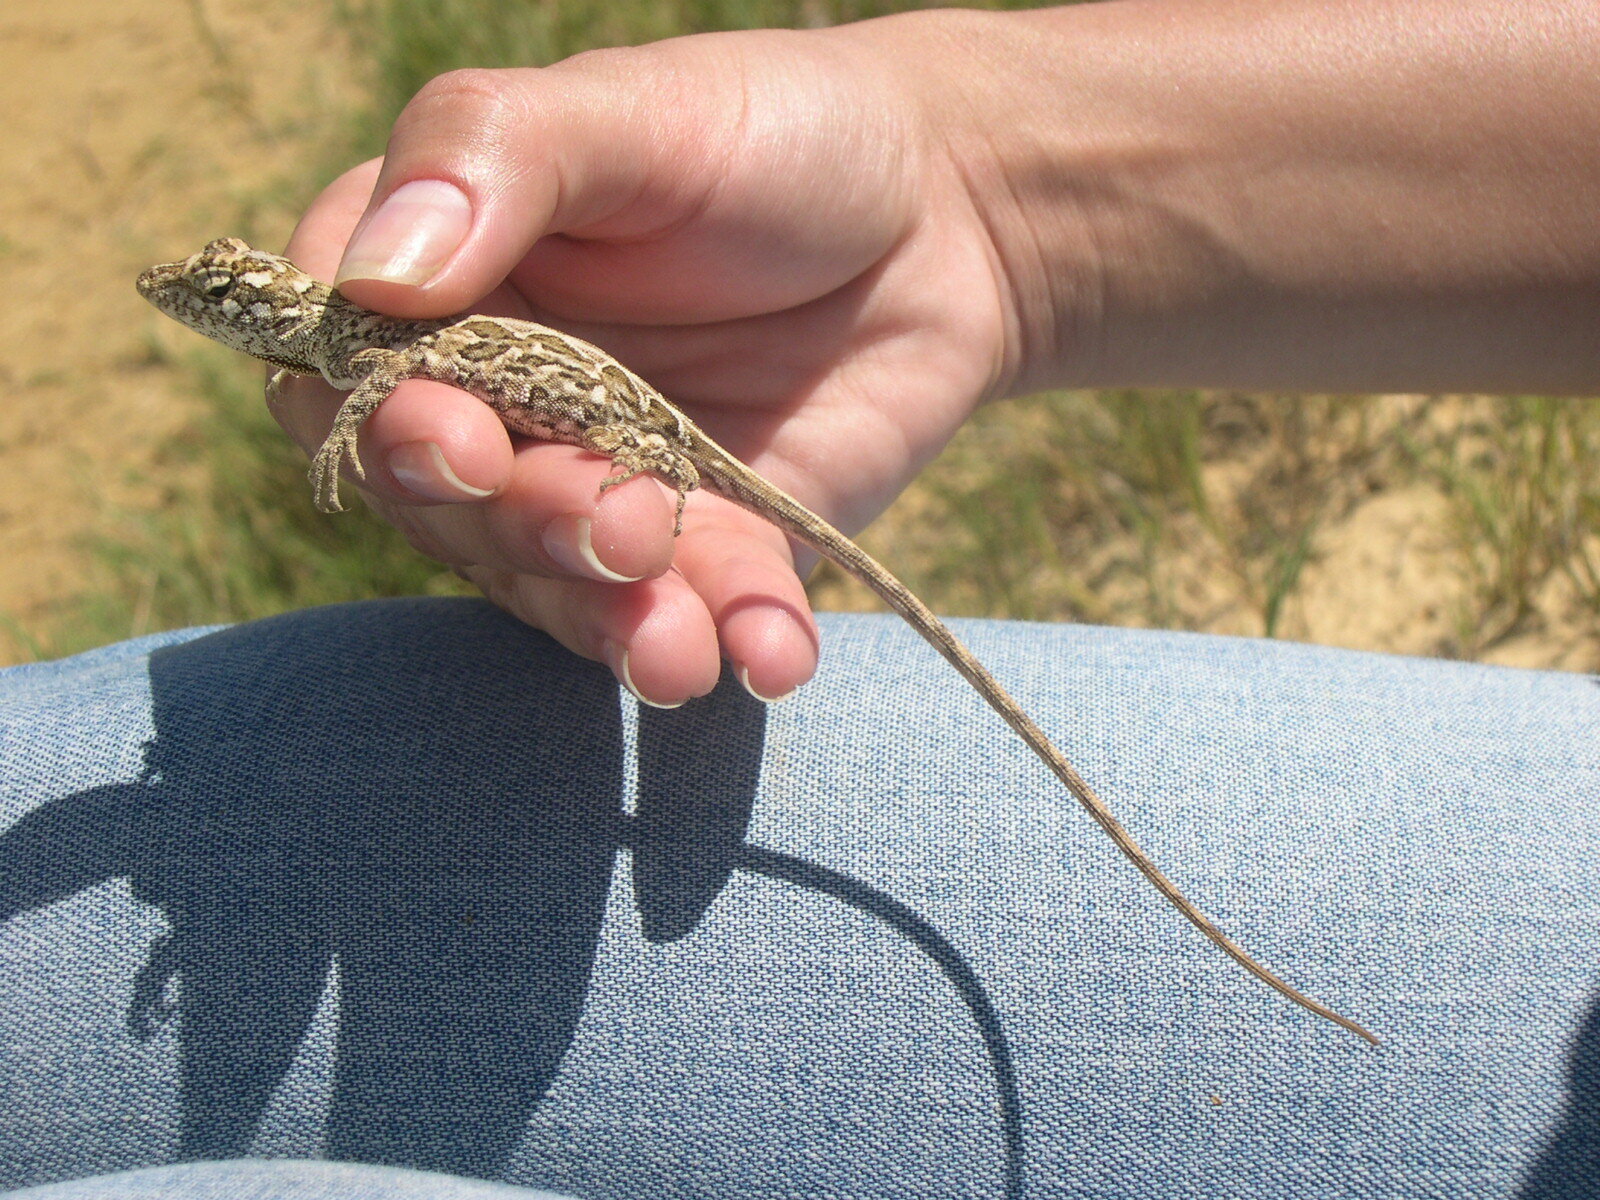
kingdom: Animalia
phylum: Chordata
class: Squamata
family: Dactyloidae
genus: Anolis
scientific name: Anolis onca
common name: Bulky anole
